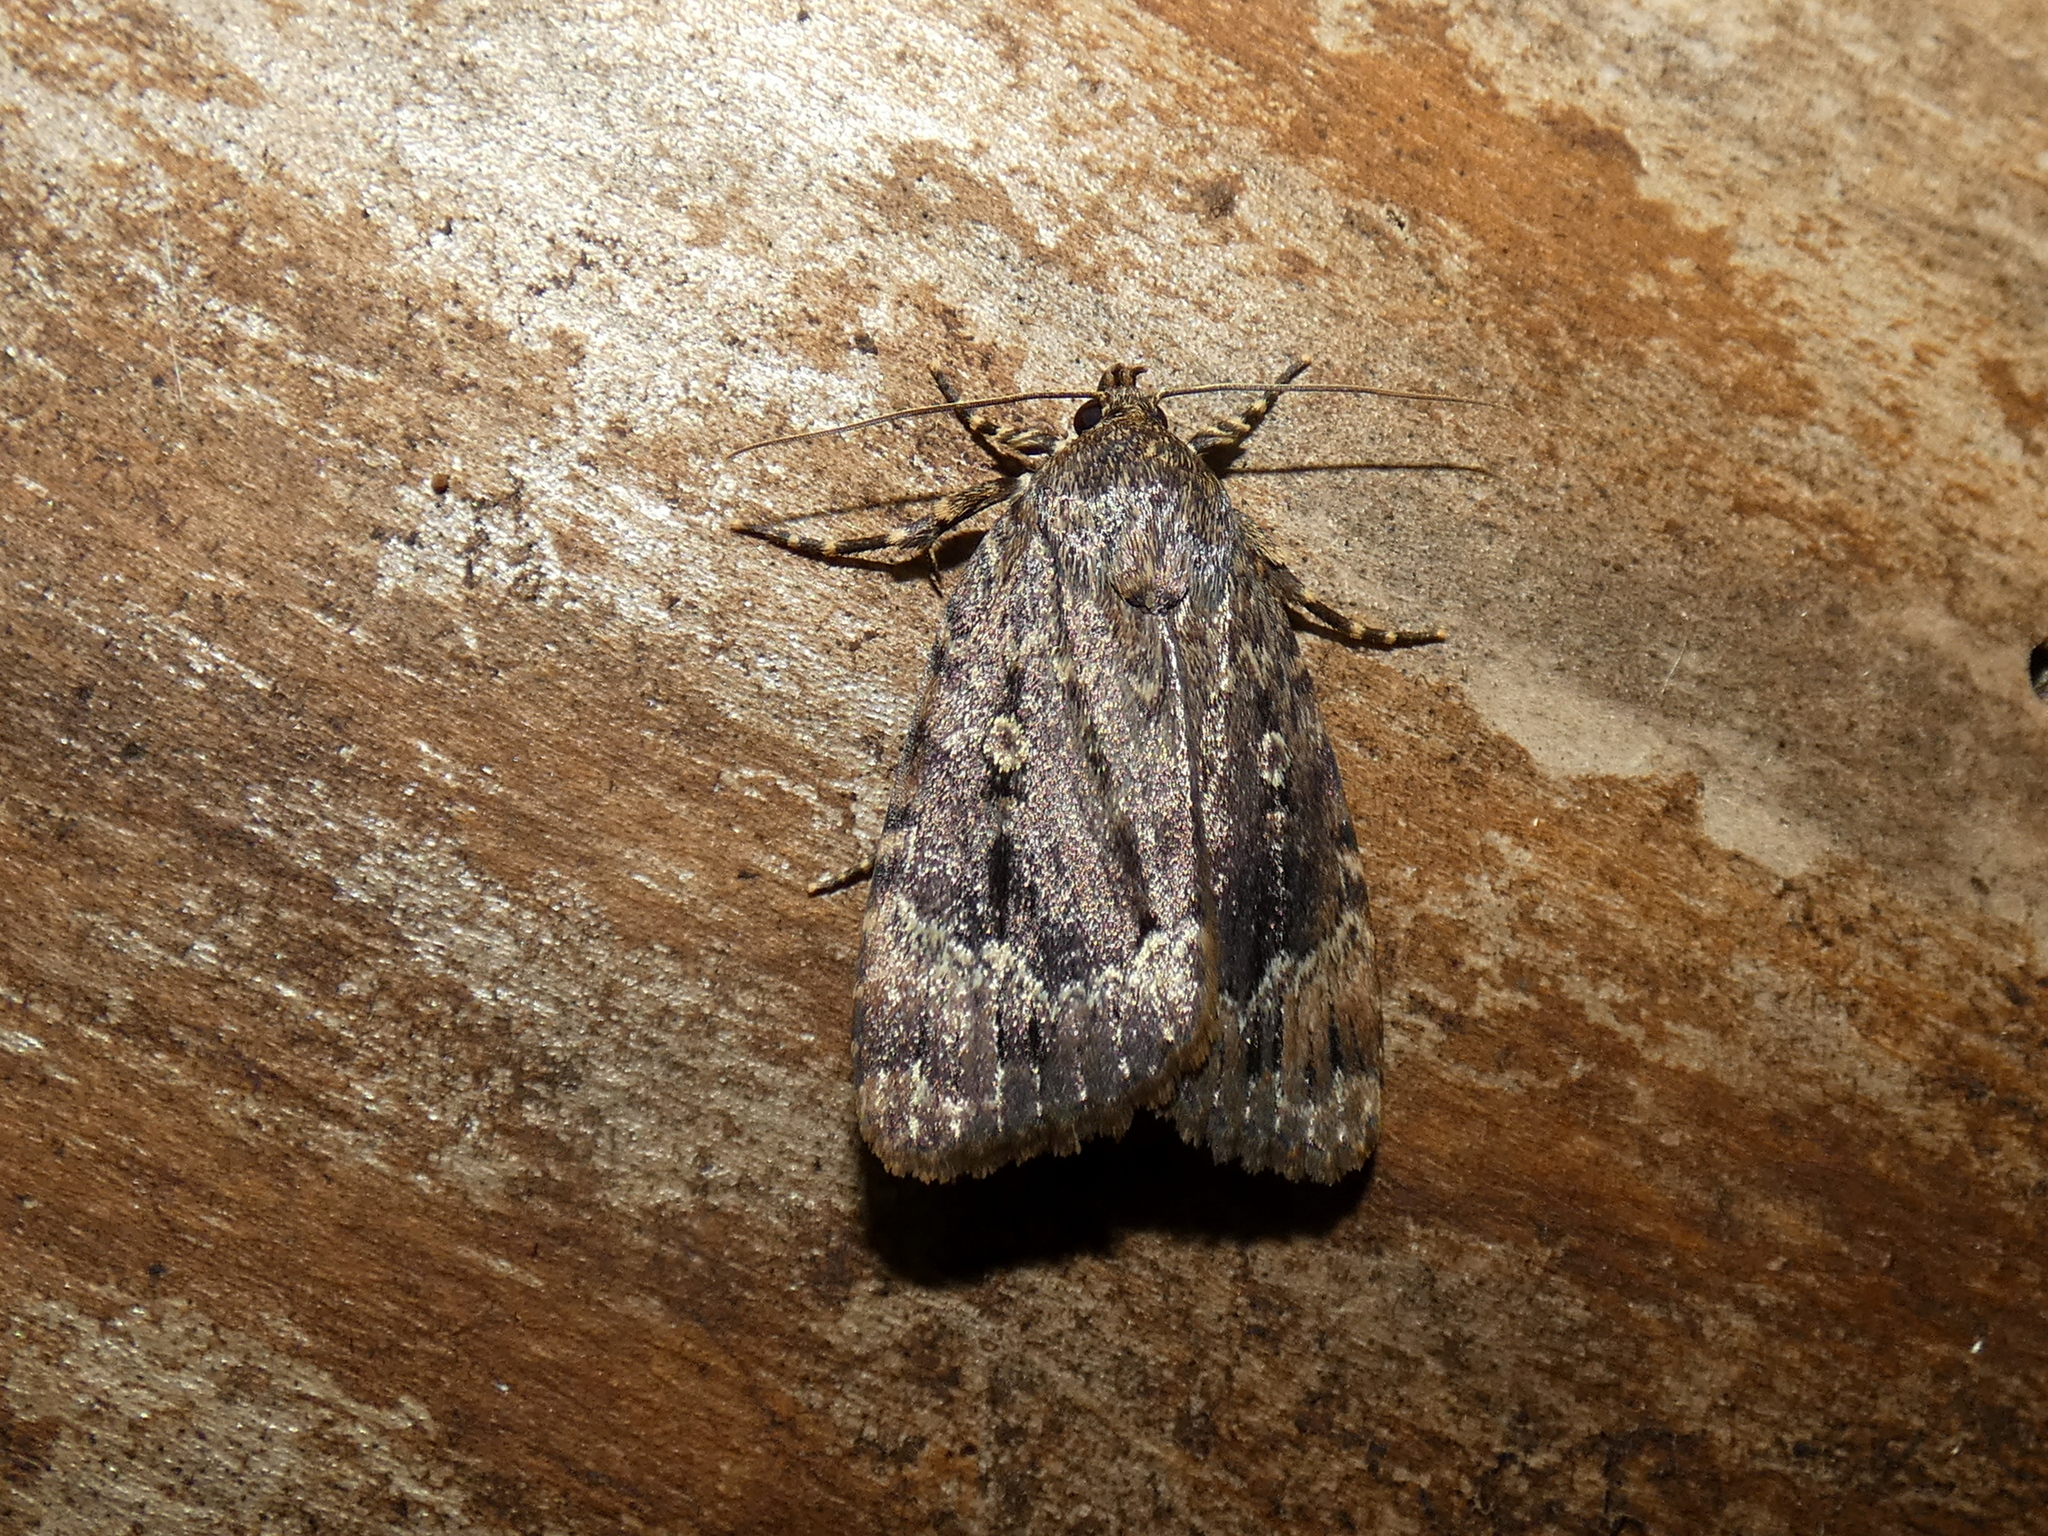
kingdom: Animalia
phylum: Arthropoda
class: Insecta
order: Lepidoptera
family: Noctuidae
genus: Amphipyra
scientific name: Amphipyra pyramidoides
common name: American copper underwing
